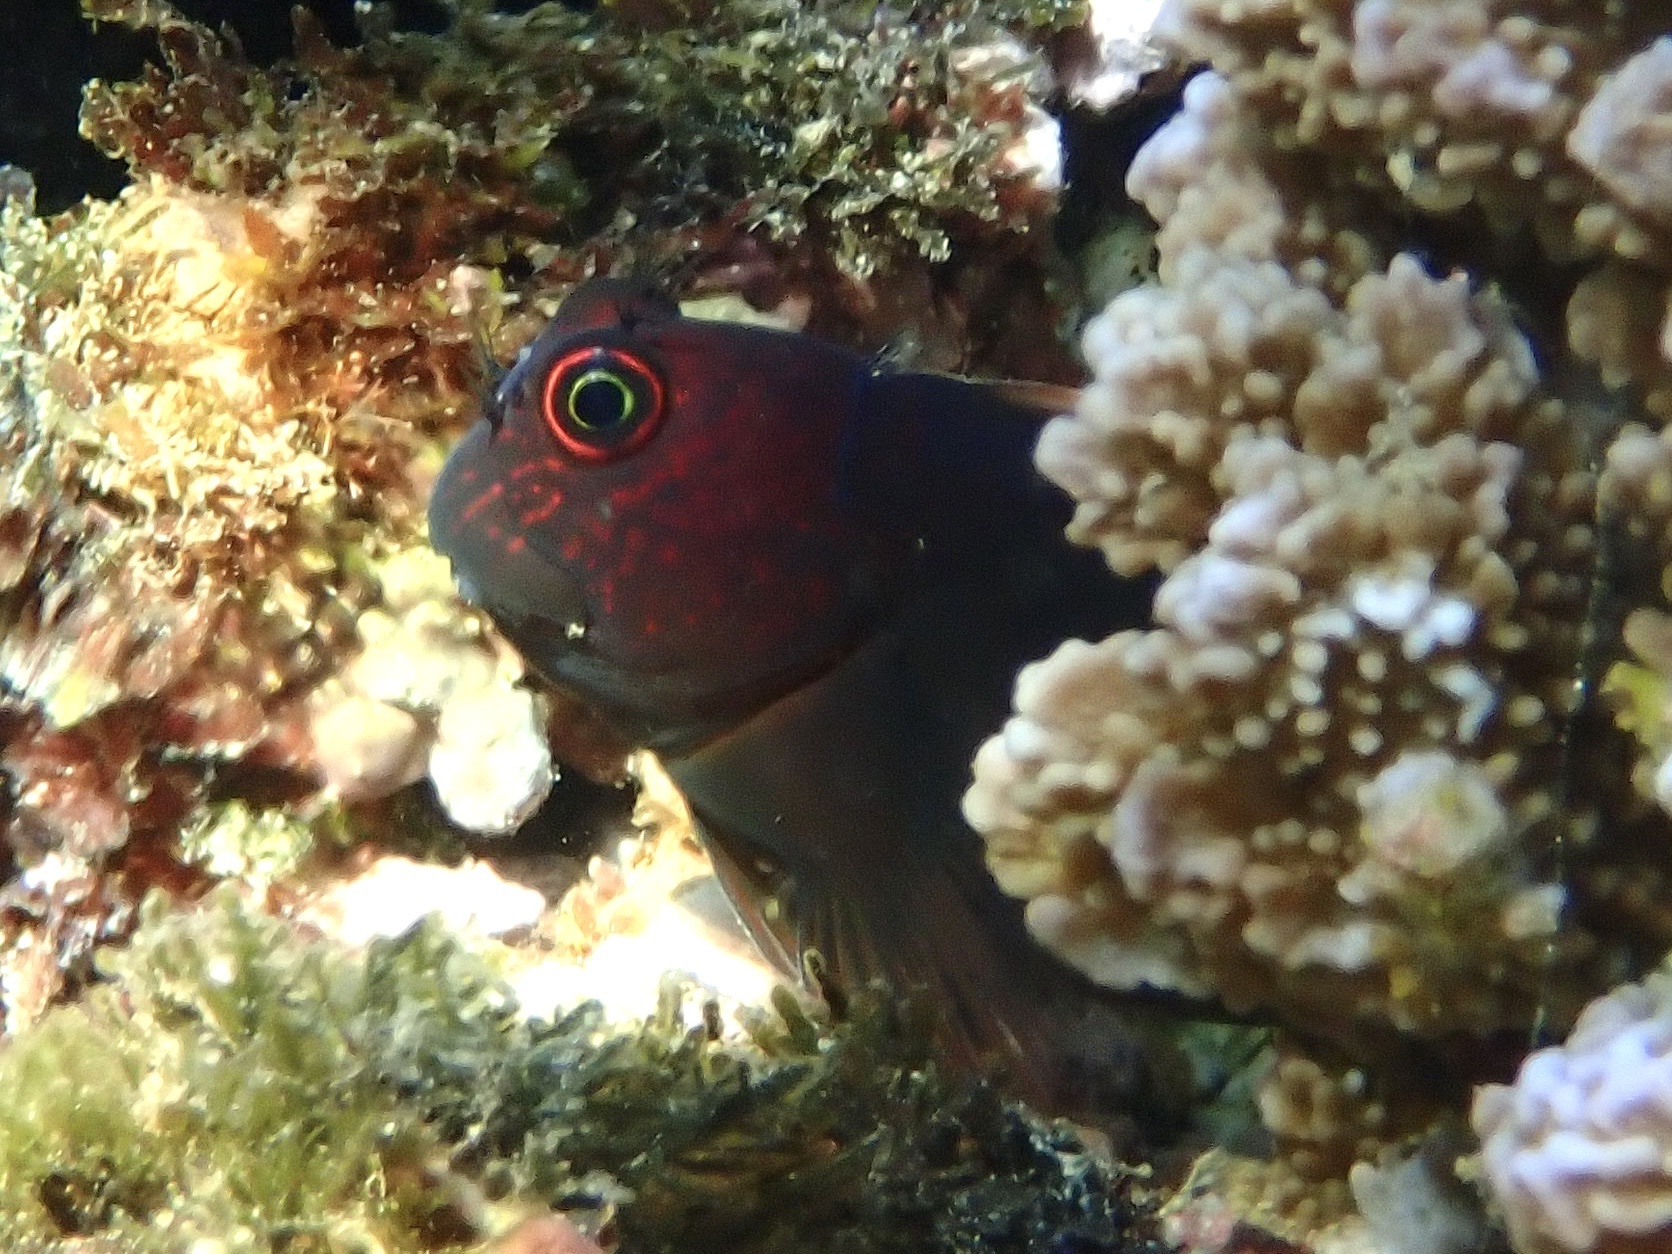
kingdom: Animalia
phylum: Chordata
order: Perciformes
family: Blenniidae
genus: Cirripectes
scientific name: Cirripectes vanderbilti
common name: Red-head blenny
